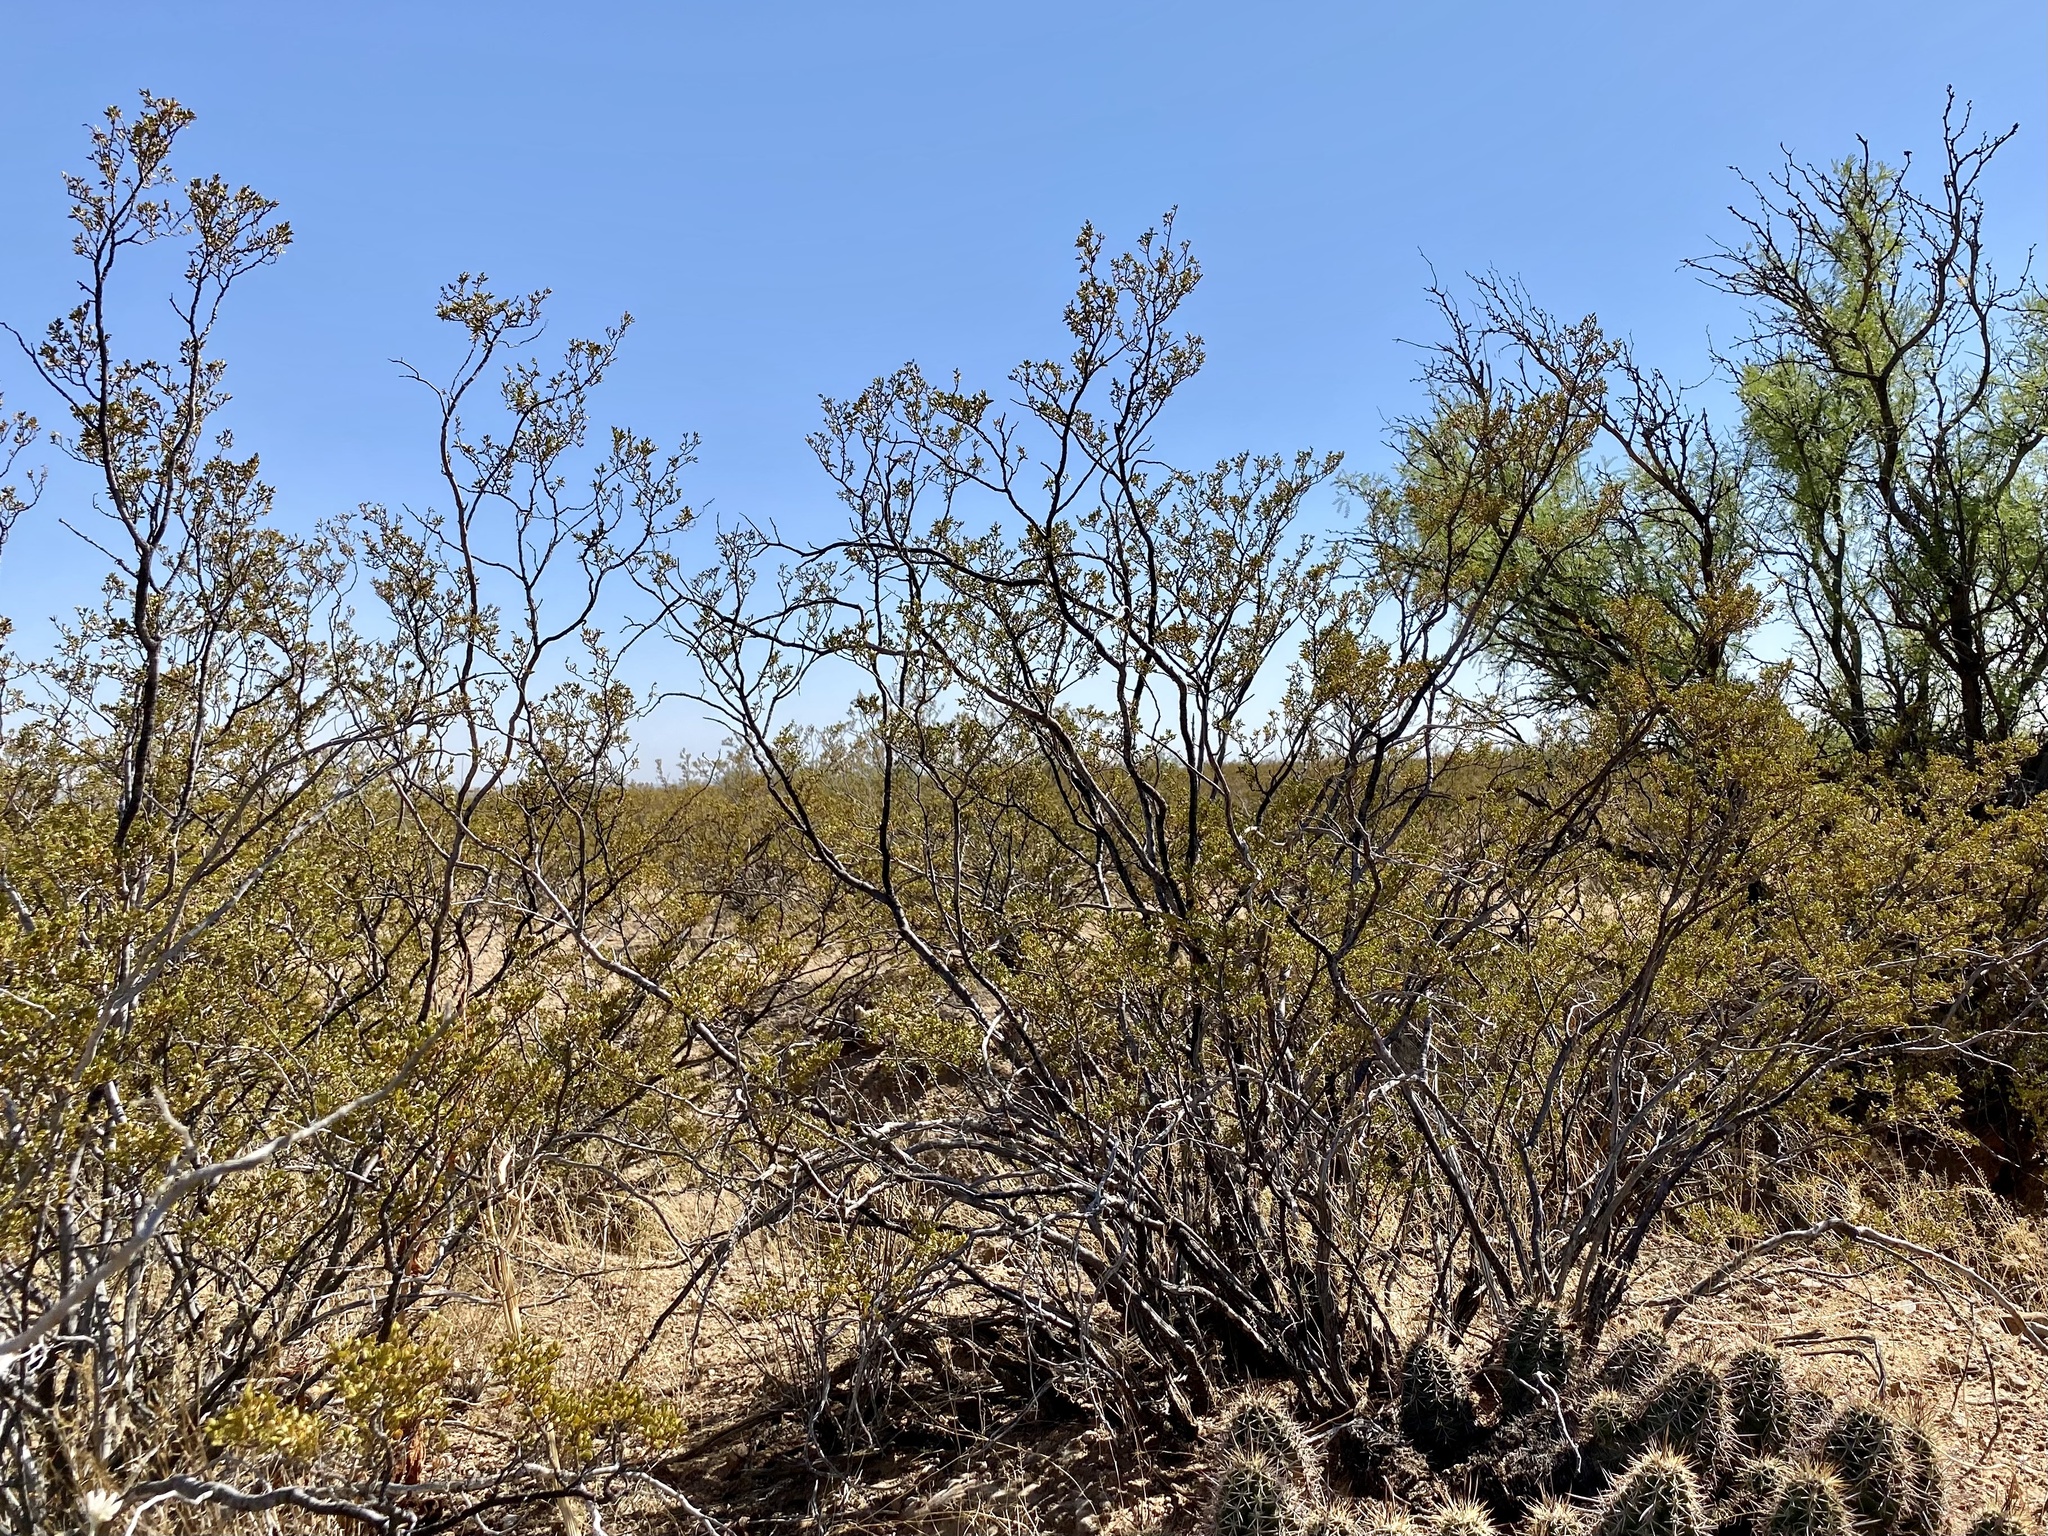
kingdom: Plantae
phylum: Tracheophyta
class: Magnoliopsida
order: Zygophyllales
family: Zygophyllaceae
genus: Larrea
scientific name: Larrea tridentata
